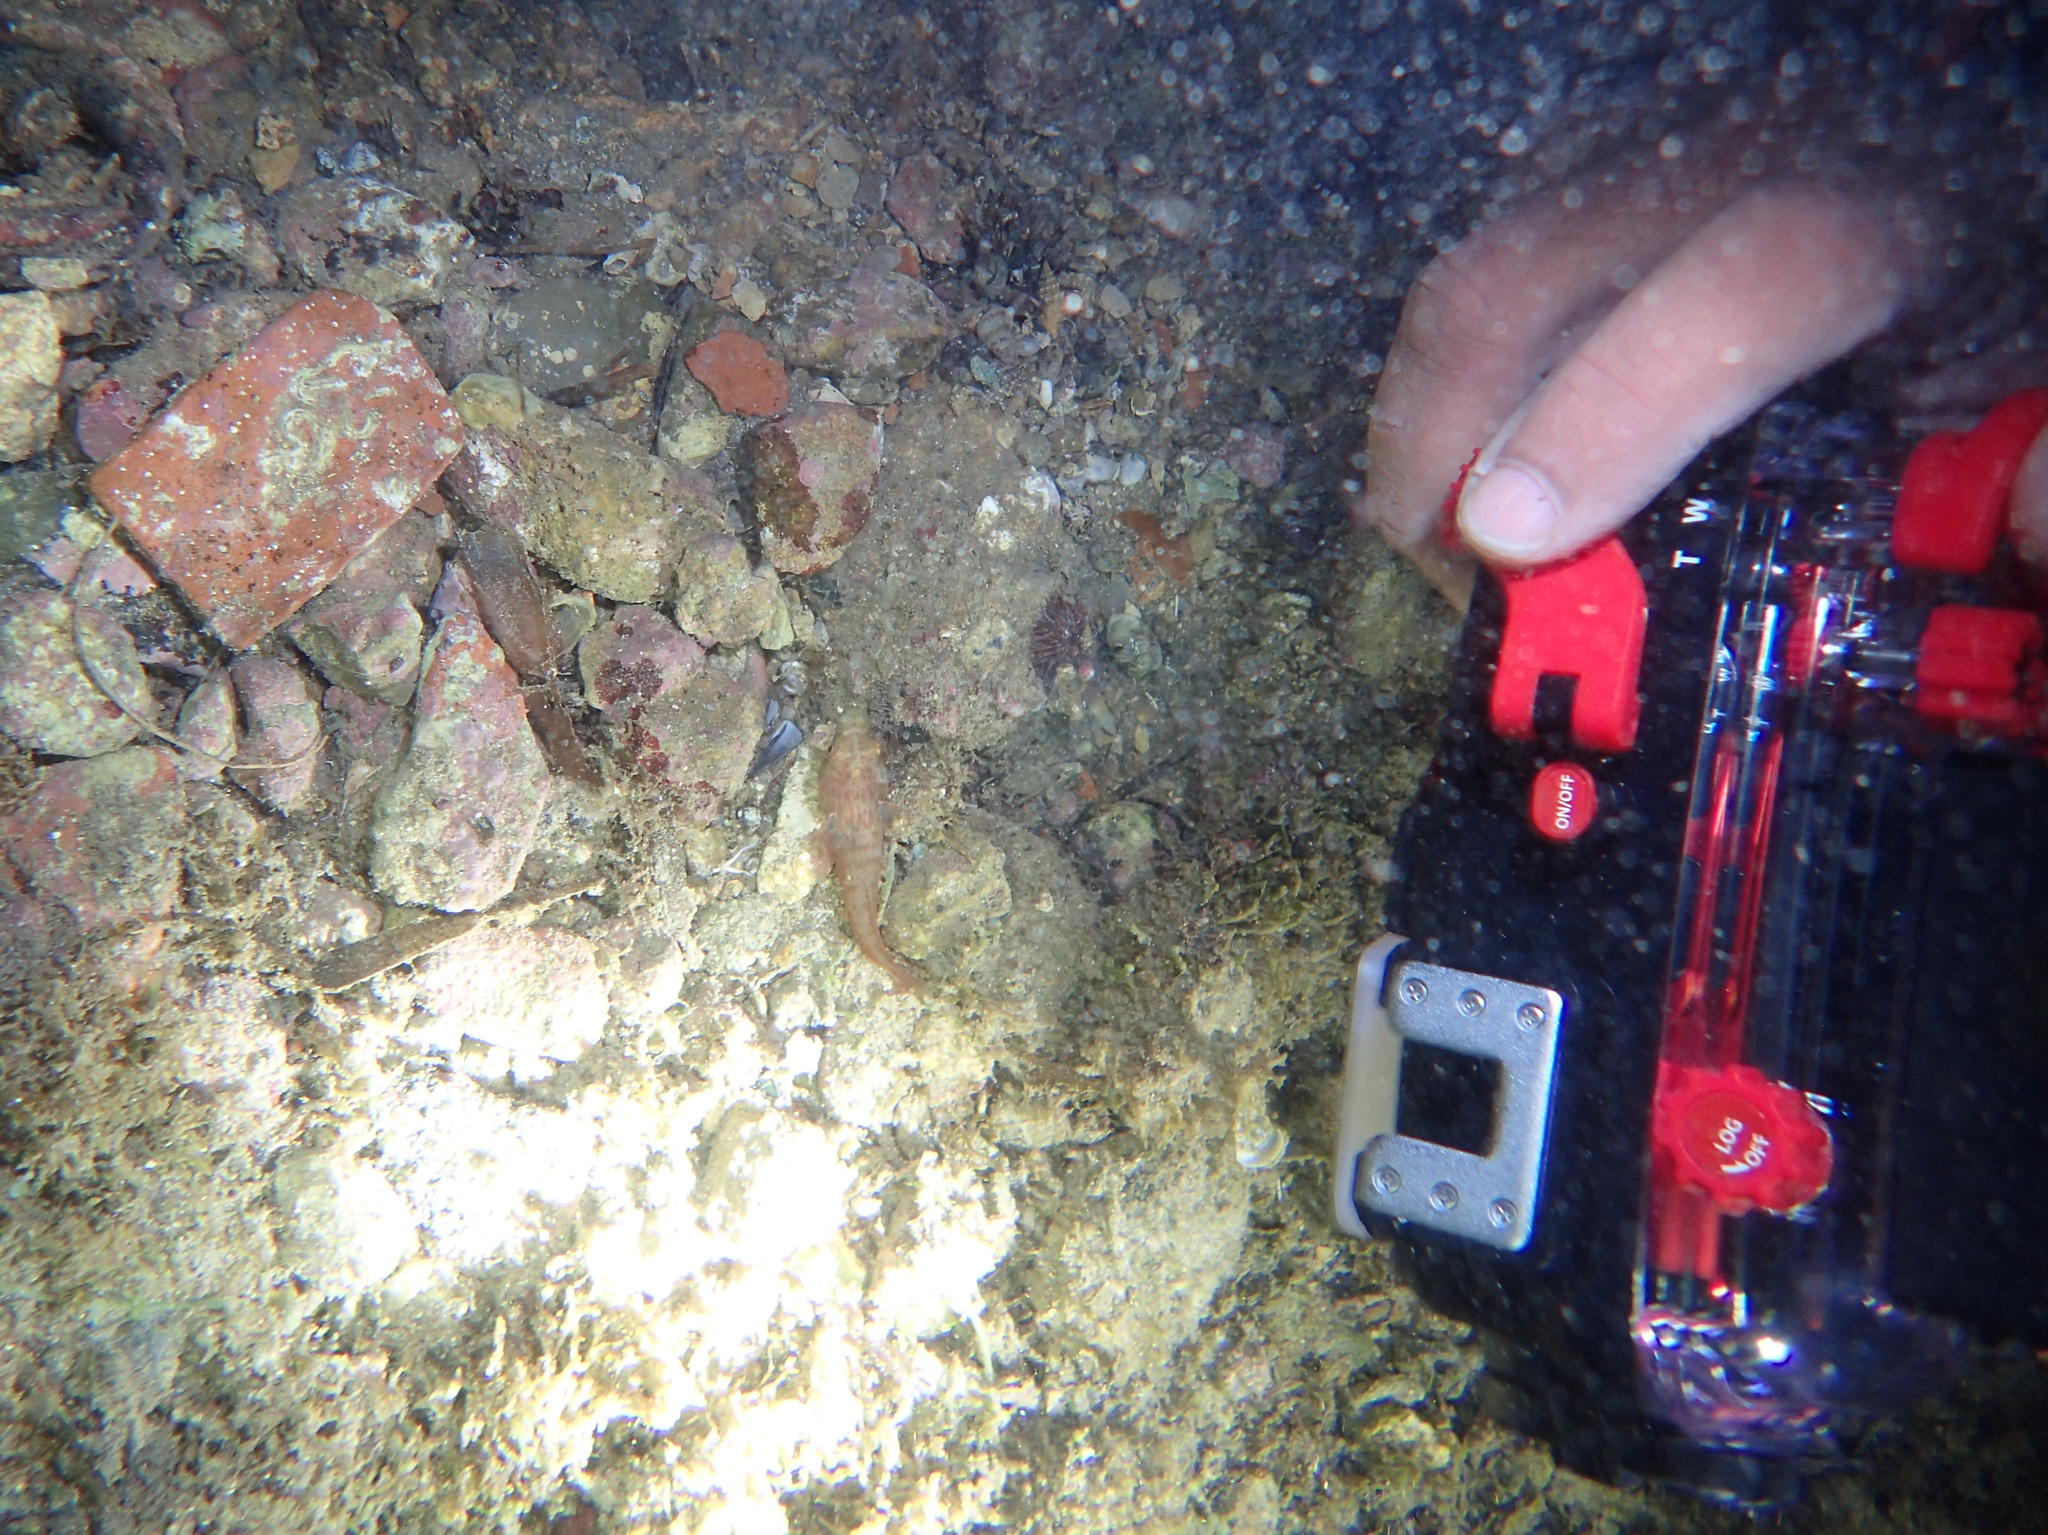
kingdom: Animalia
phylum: Chordata
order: Gobiesociformes
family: Gobiesocidae
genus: Lepadogaster
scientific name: Lepadogaster candolii
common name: Connemarra clingfish
